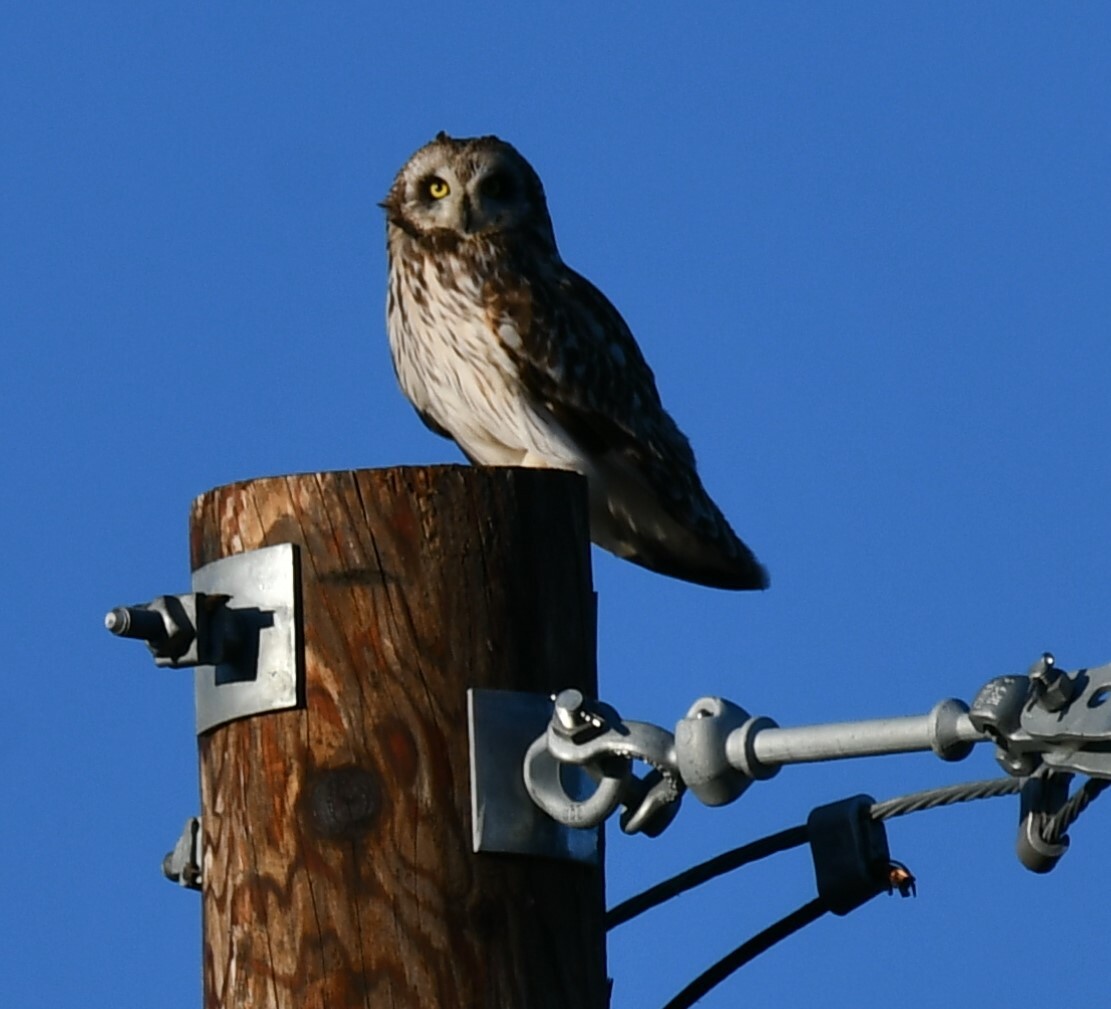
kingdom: Animalia
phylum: Chordata
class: Aves
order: Strigiformes
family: Strigidae
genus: Asio
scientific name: Asio flammeus
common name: Short-eared owl
